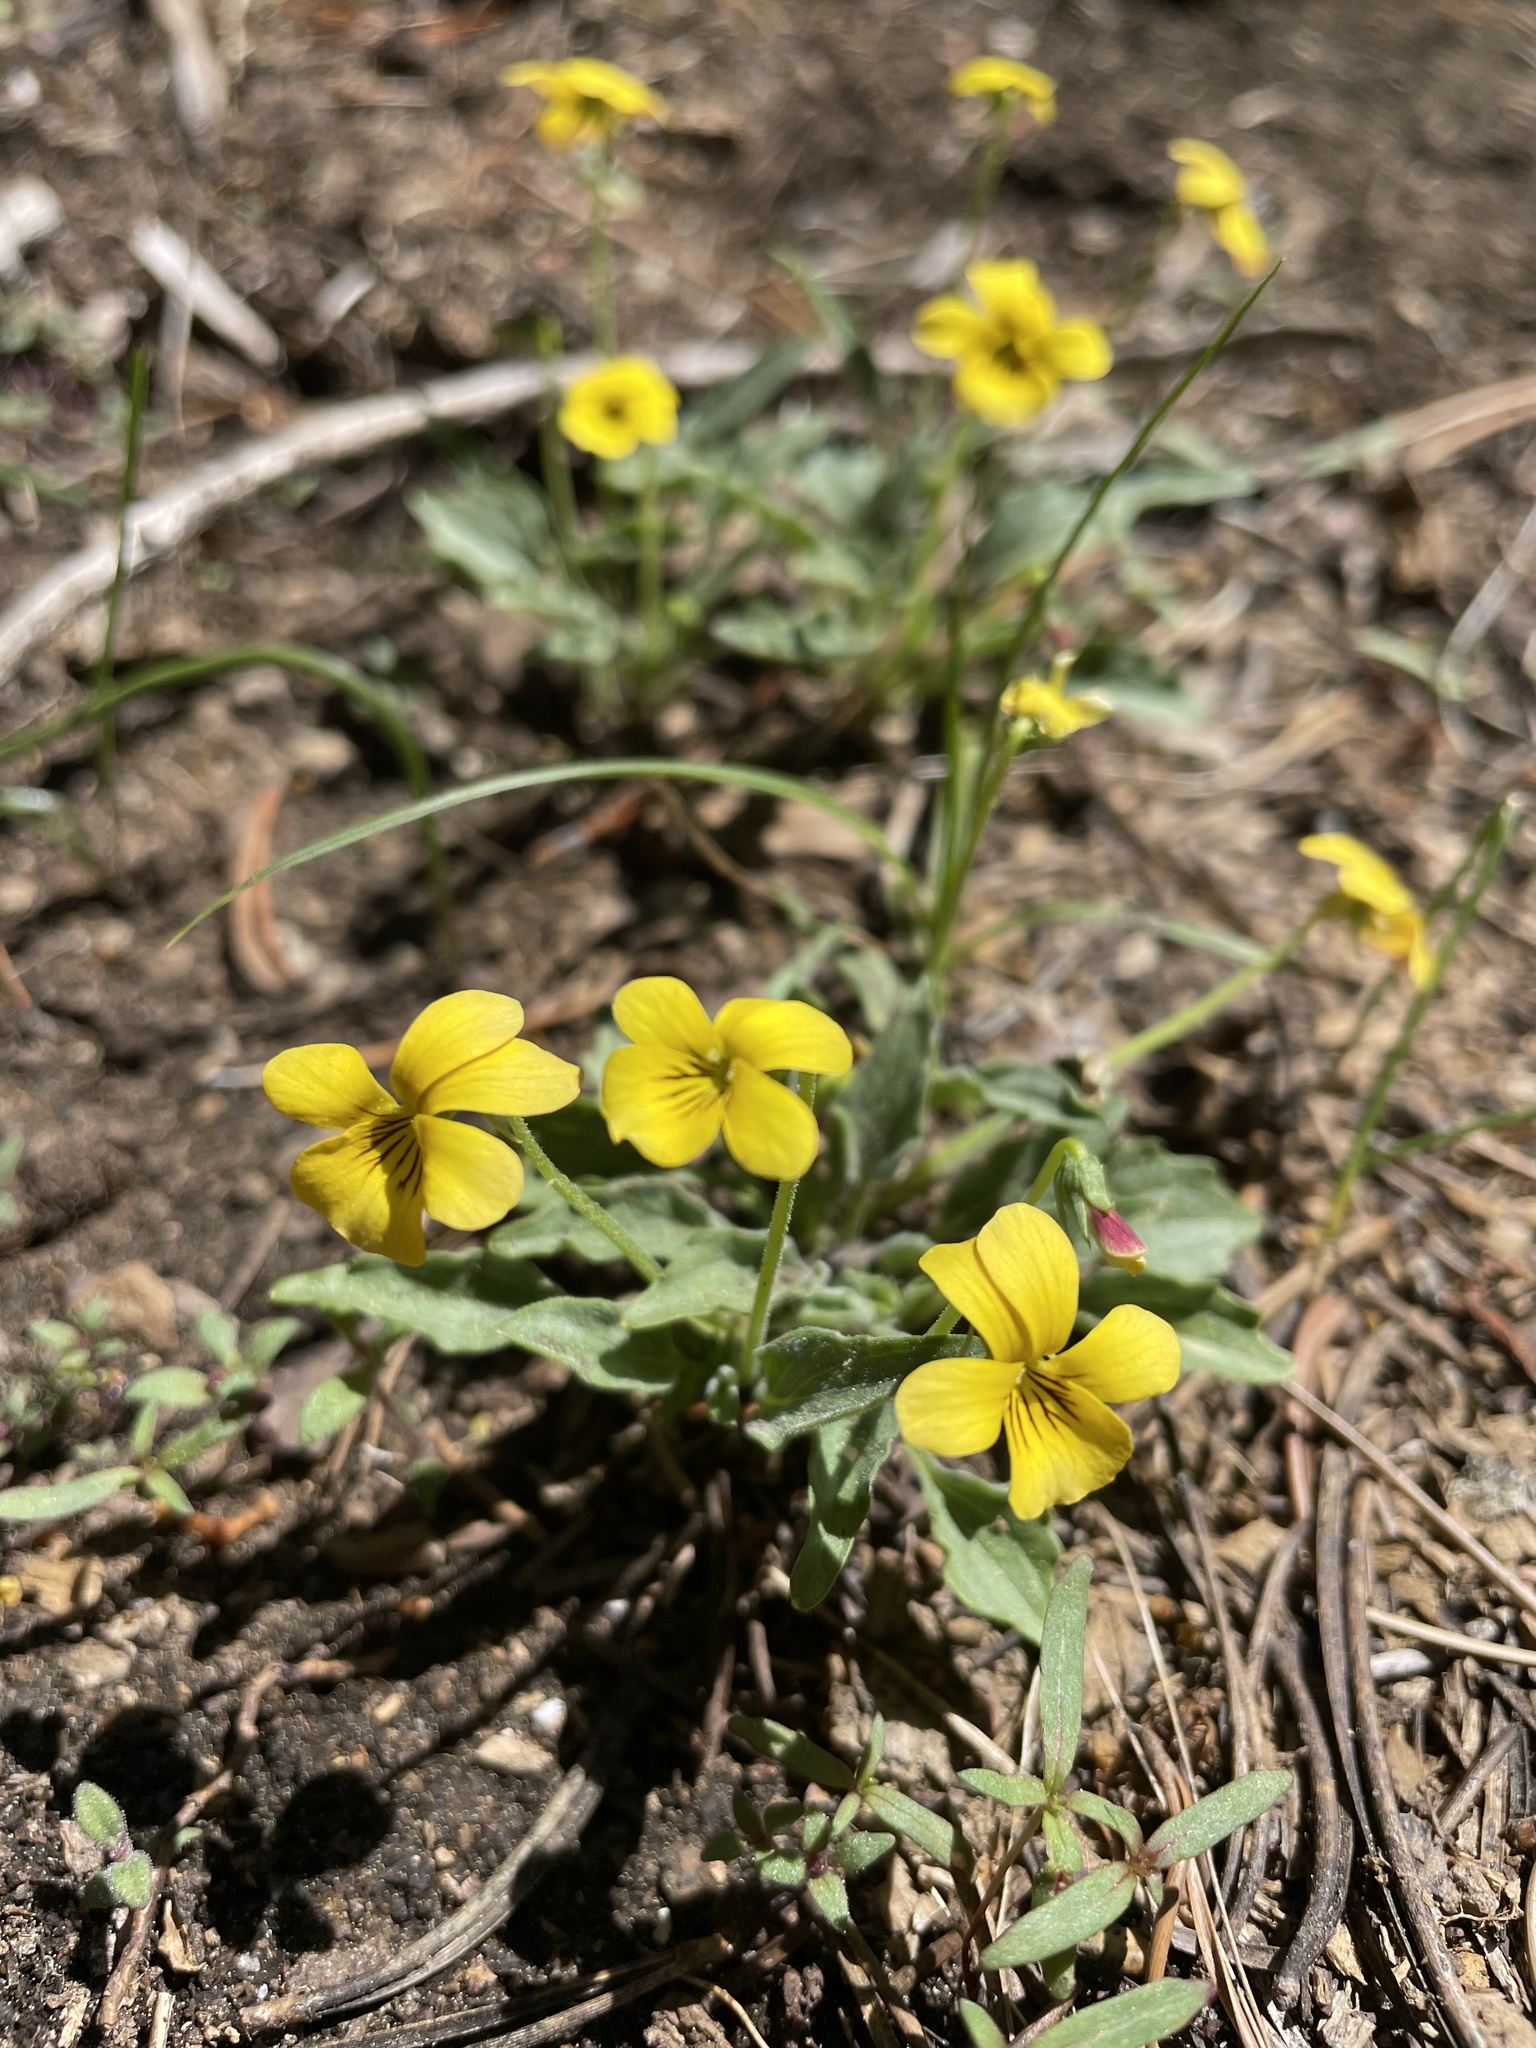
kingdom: Plantae
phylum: Tracheophyta
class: Magnoliopsida
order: Malpighiales
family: Violaceae
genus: Viola
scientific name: Viola pinetorum
